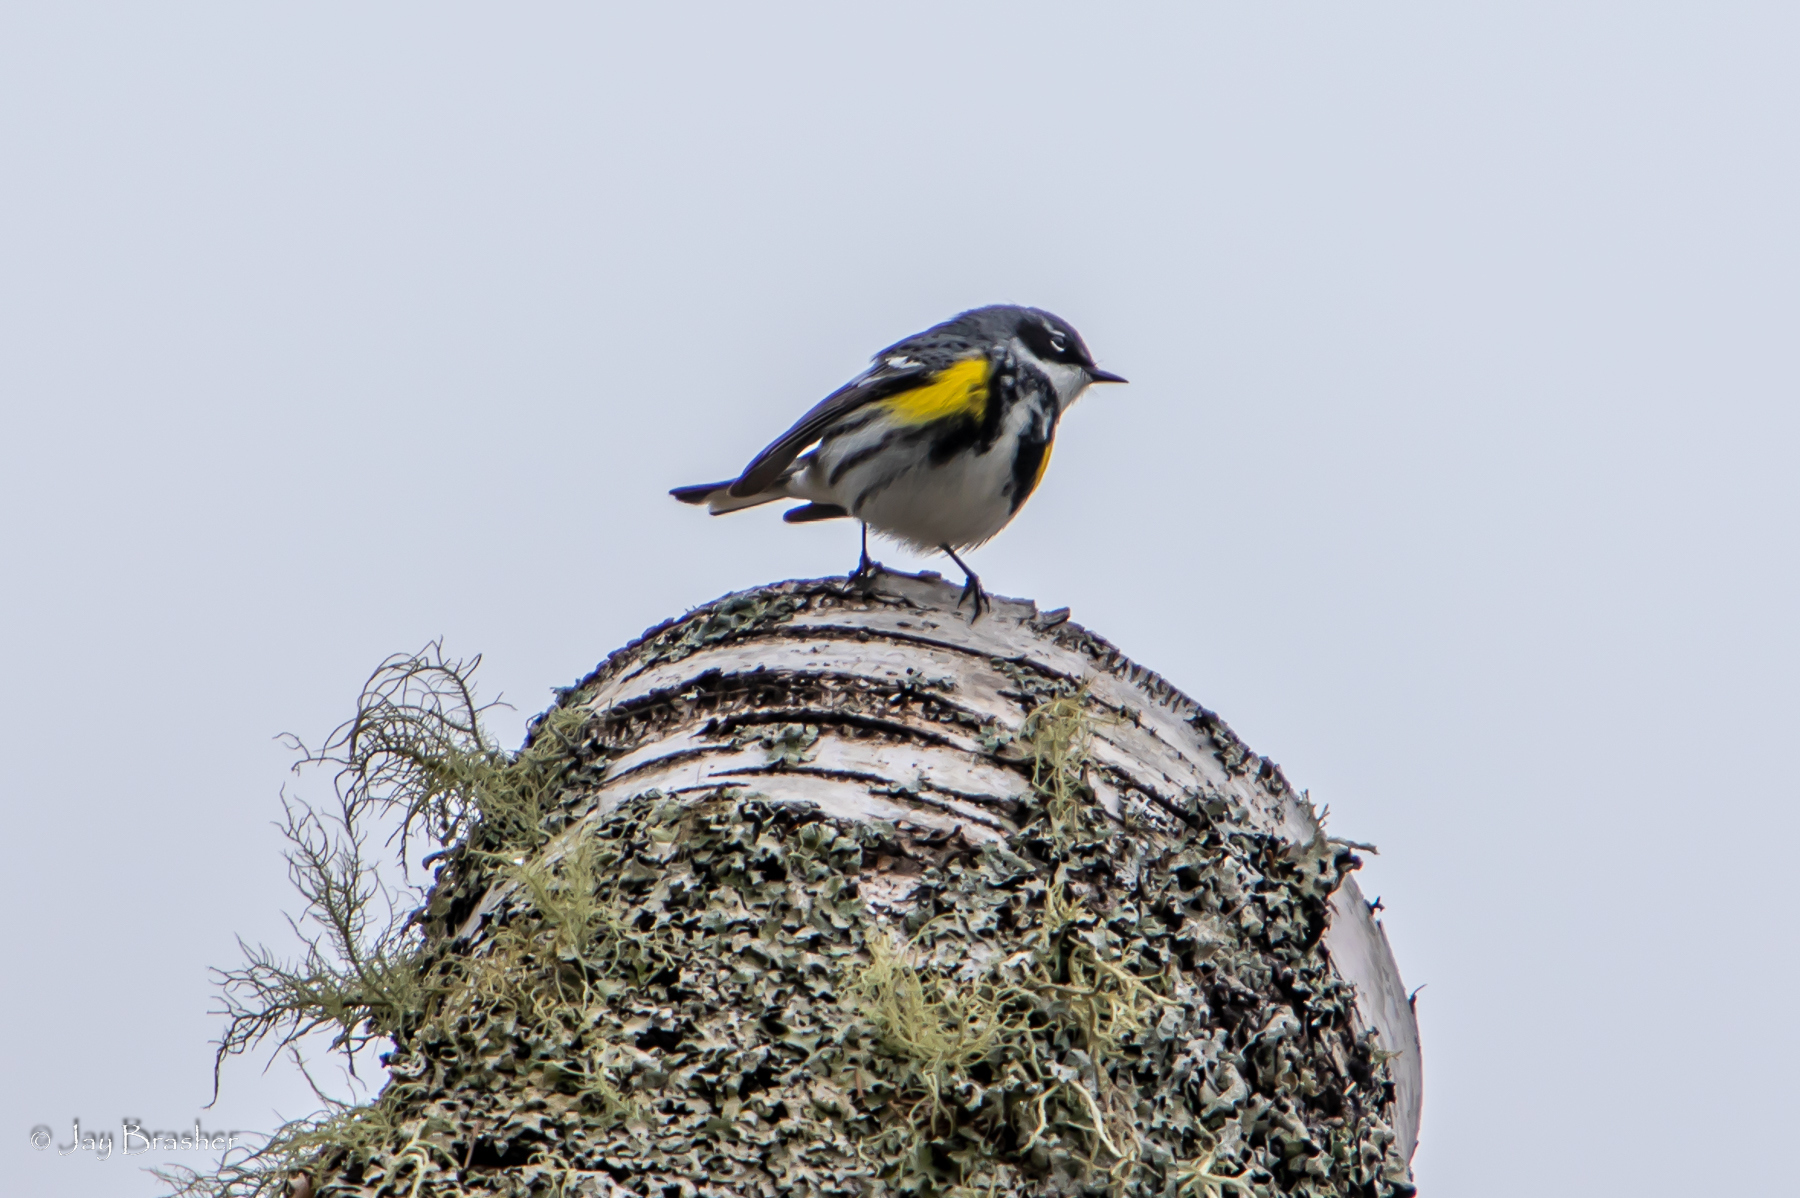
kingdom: Animalia
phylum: Chordata
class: Aves
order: Passeriformes
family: Parulidae
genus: Setophaga
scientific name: Setophaga coronata
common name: Myrtle warbler
